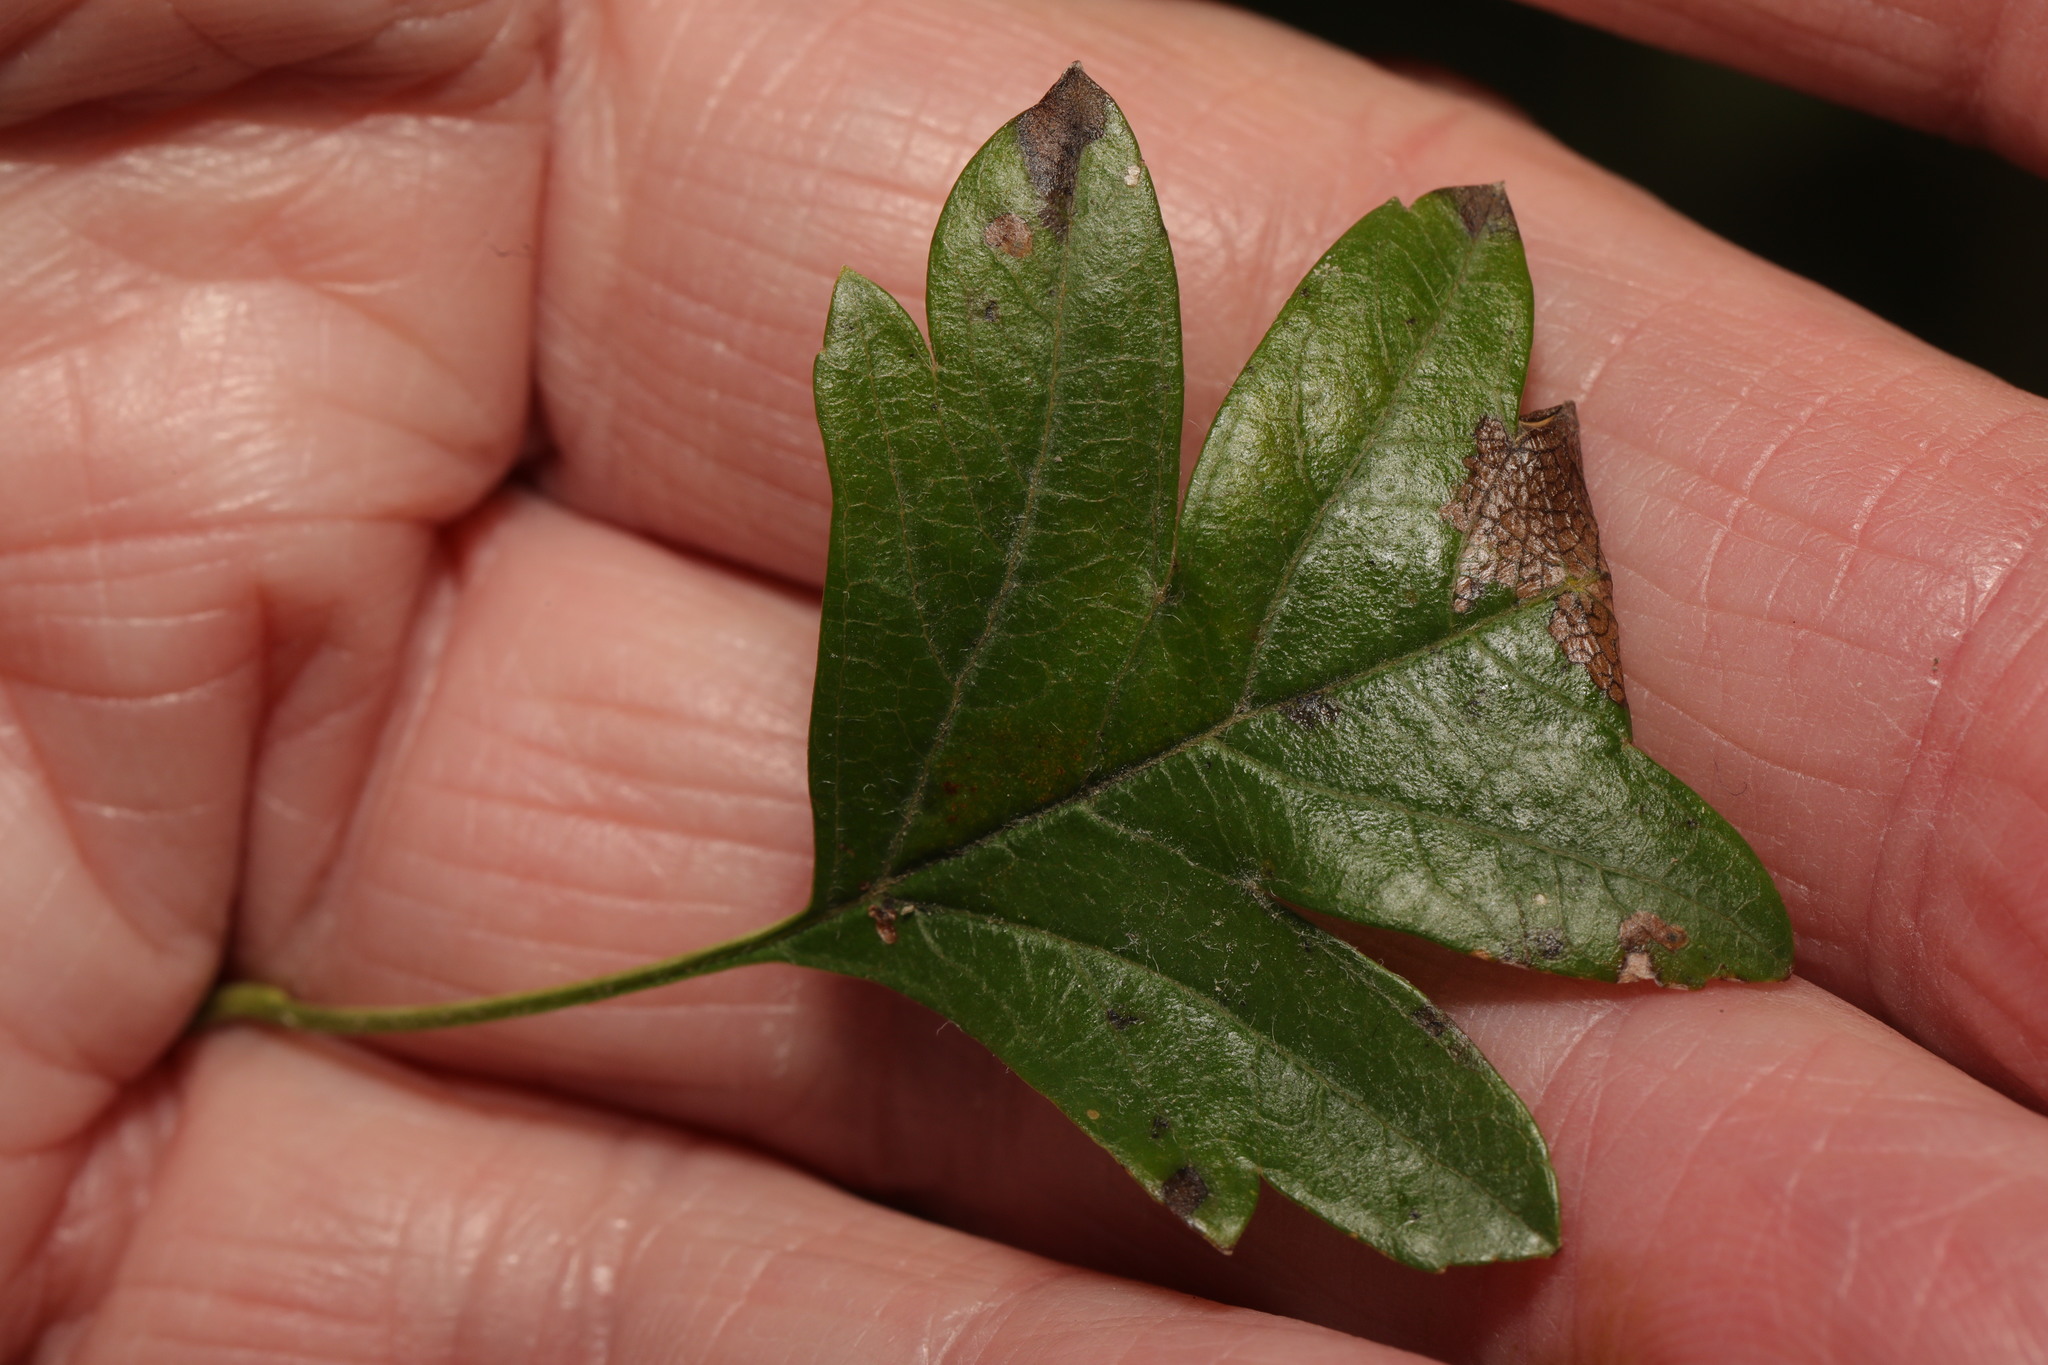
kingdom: Animalia
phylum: Arthropoda
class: Insecta
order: Lepidoptera
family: Gracillariidae
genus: Parornix
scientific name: Parornix anglicella
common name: Hawthorn slender
